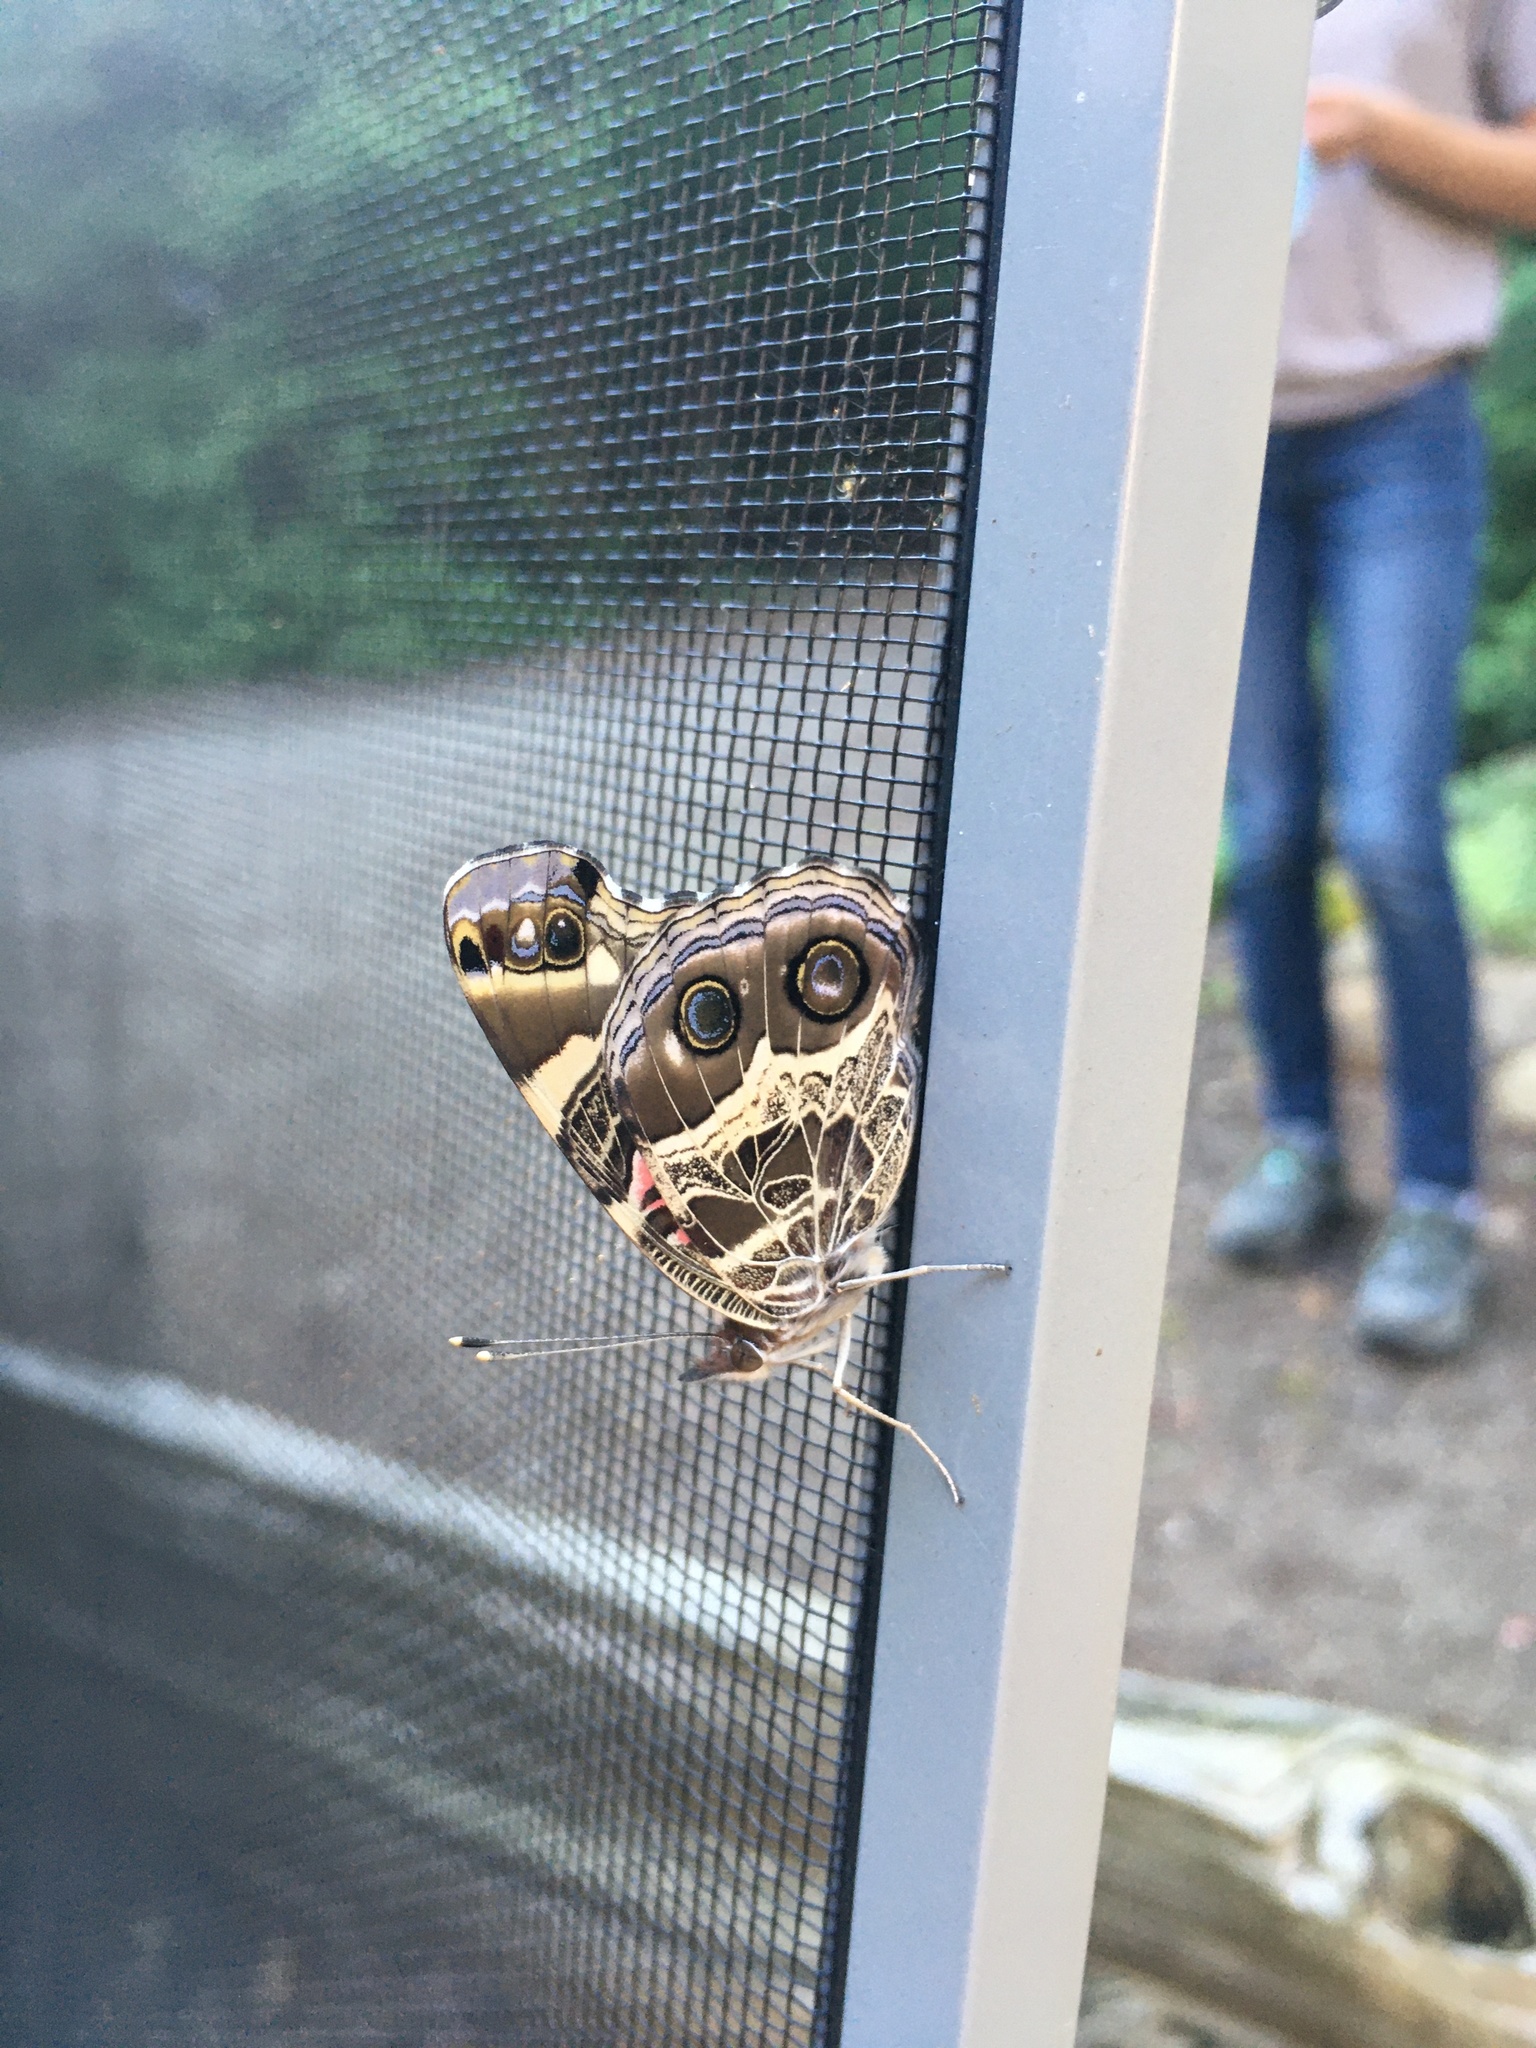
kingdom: Animalia
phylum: Arthropoda
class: Insecta
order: Lepidoptera
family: Nymphalidae
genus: Vanessa
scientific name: Vanessa virginiensis
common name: American lady
